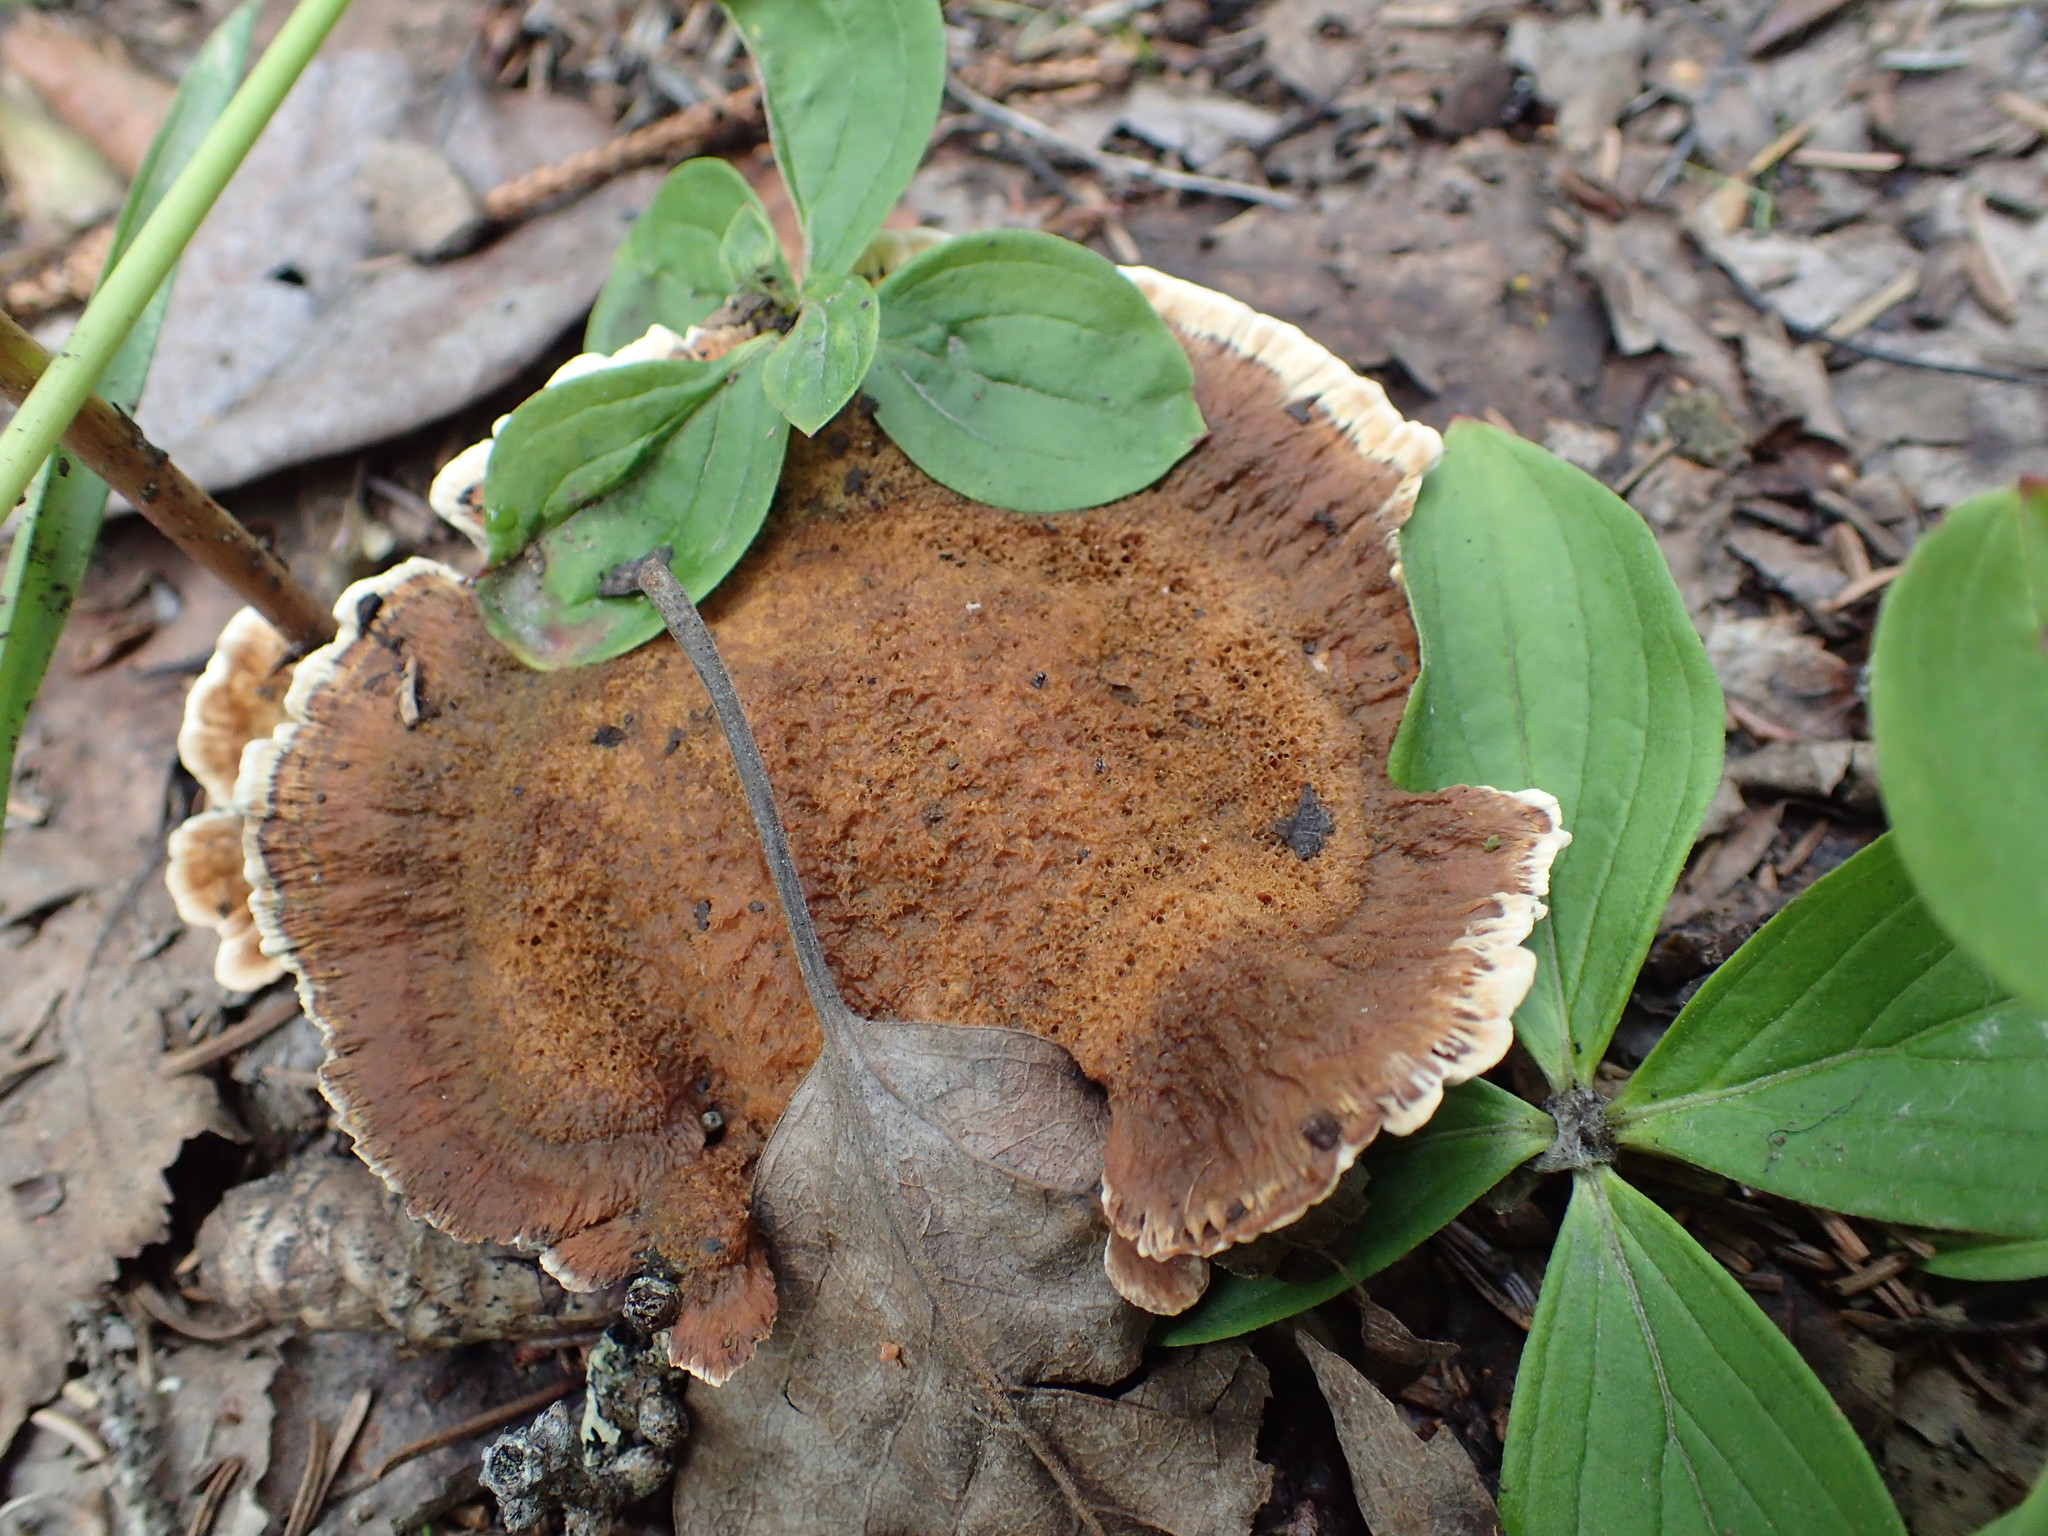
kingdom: Fungi
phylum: Basidiomycota
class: Agaricomycetes
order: Hymenochaetales
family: Hymenochaetaceae
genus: Onnia
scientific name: Onnia tomentosa
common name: Velvet rosette
